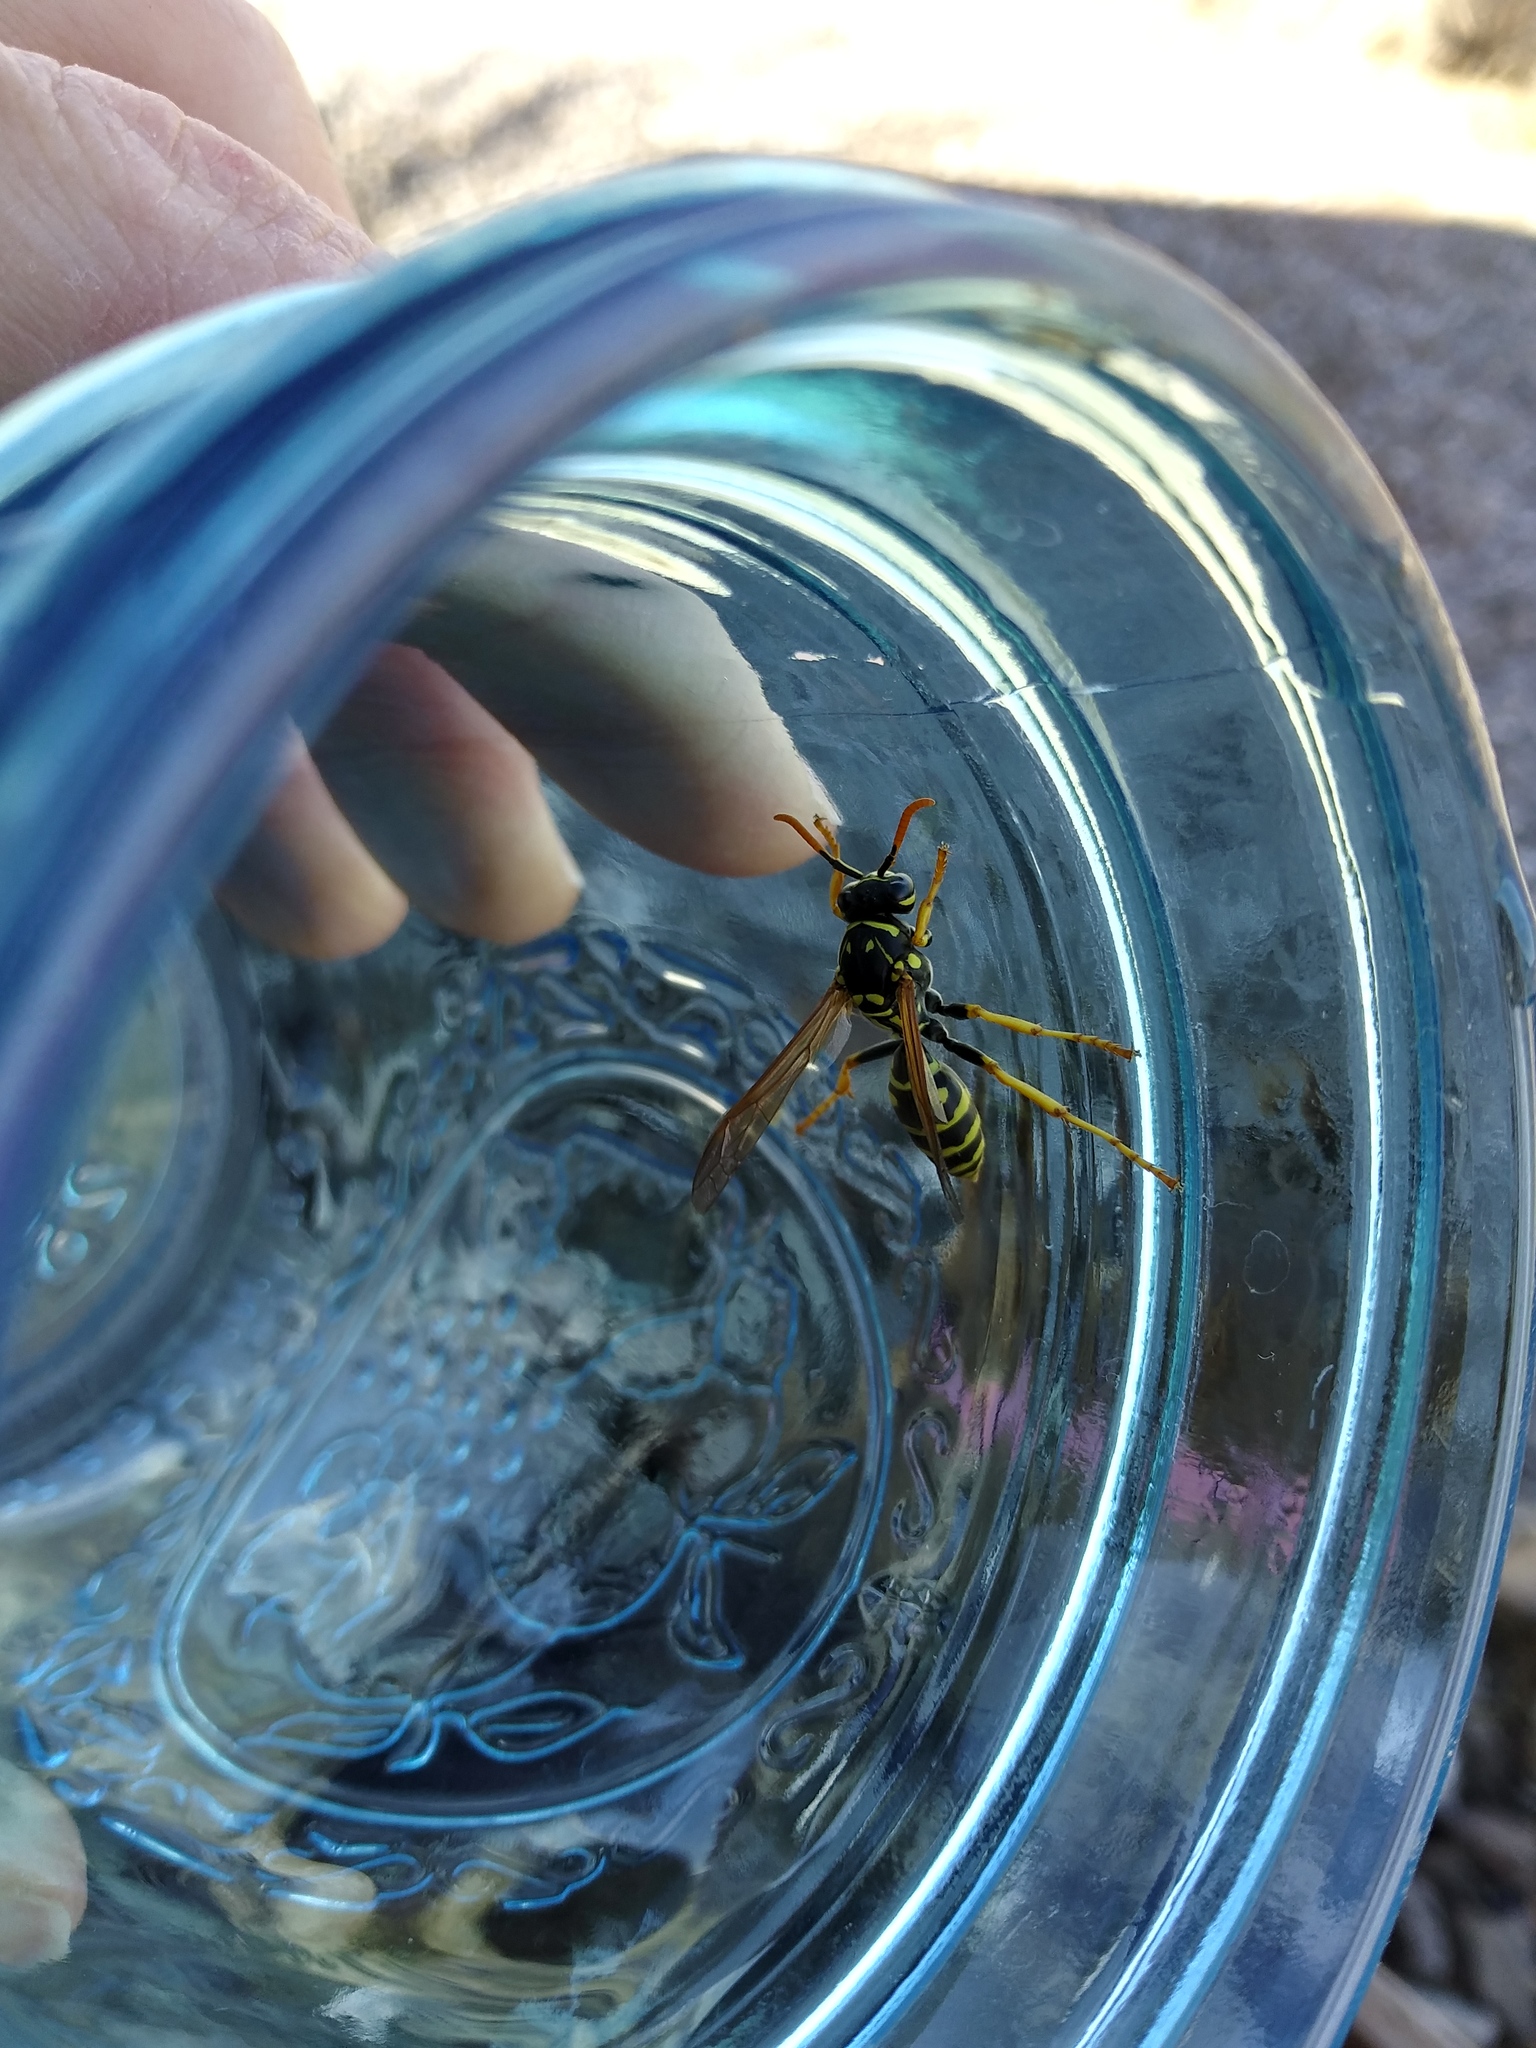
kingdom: Animalia
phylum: Arthropoda
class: Insecta
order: Hymenoptera
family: Eumenidae
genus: Polistes
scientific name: Polistes dominula
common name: Paper wasp
